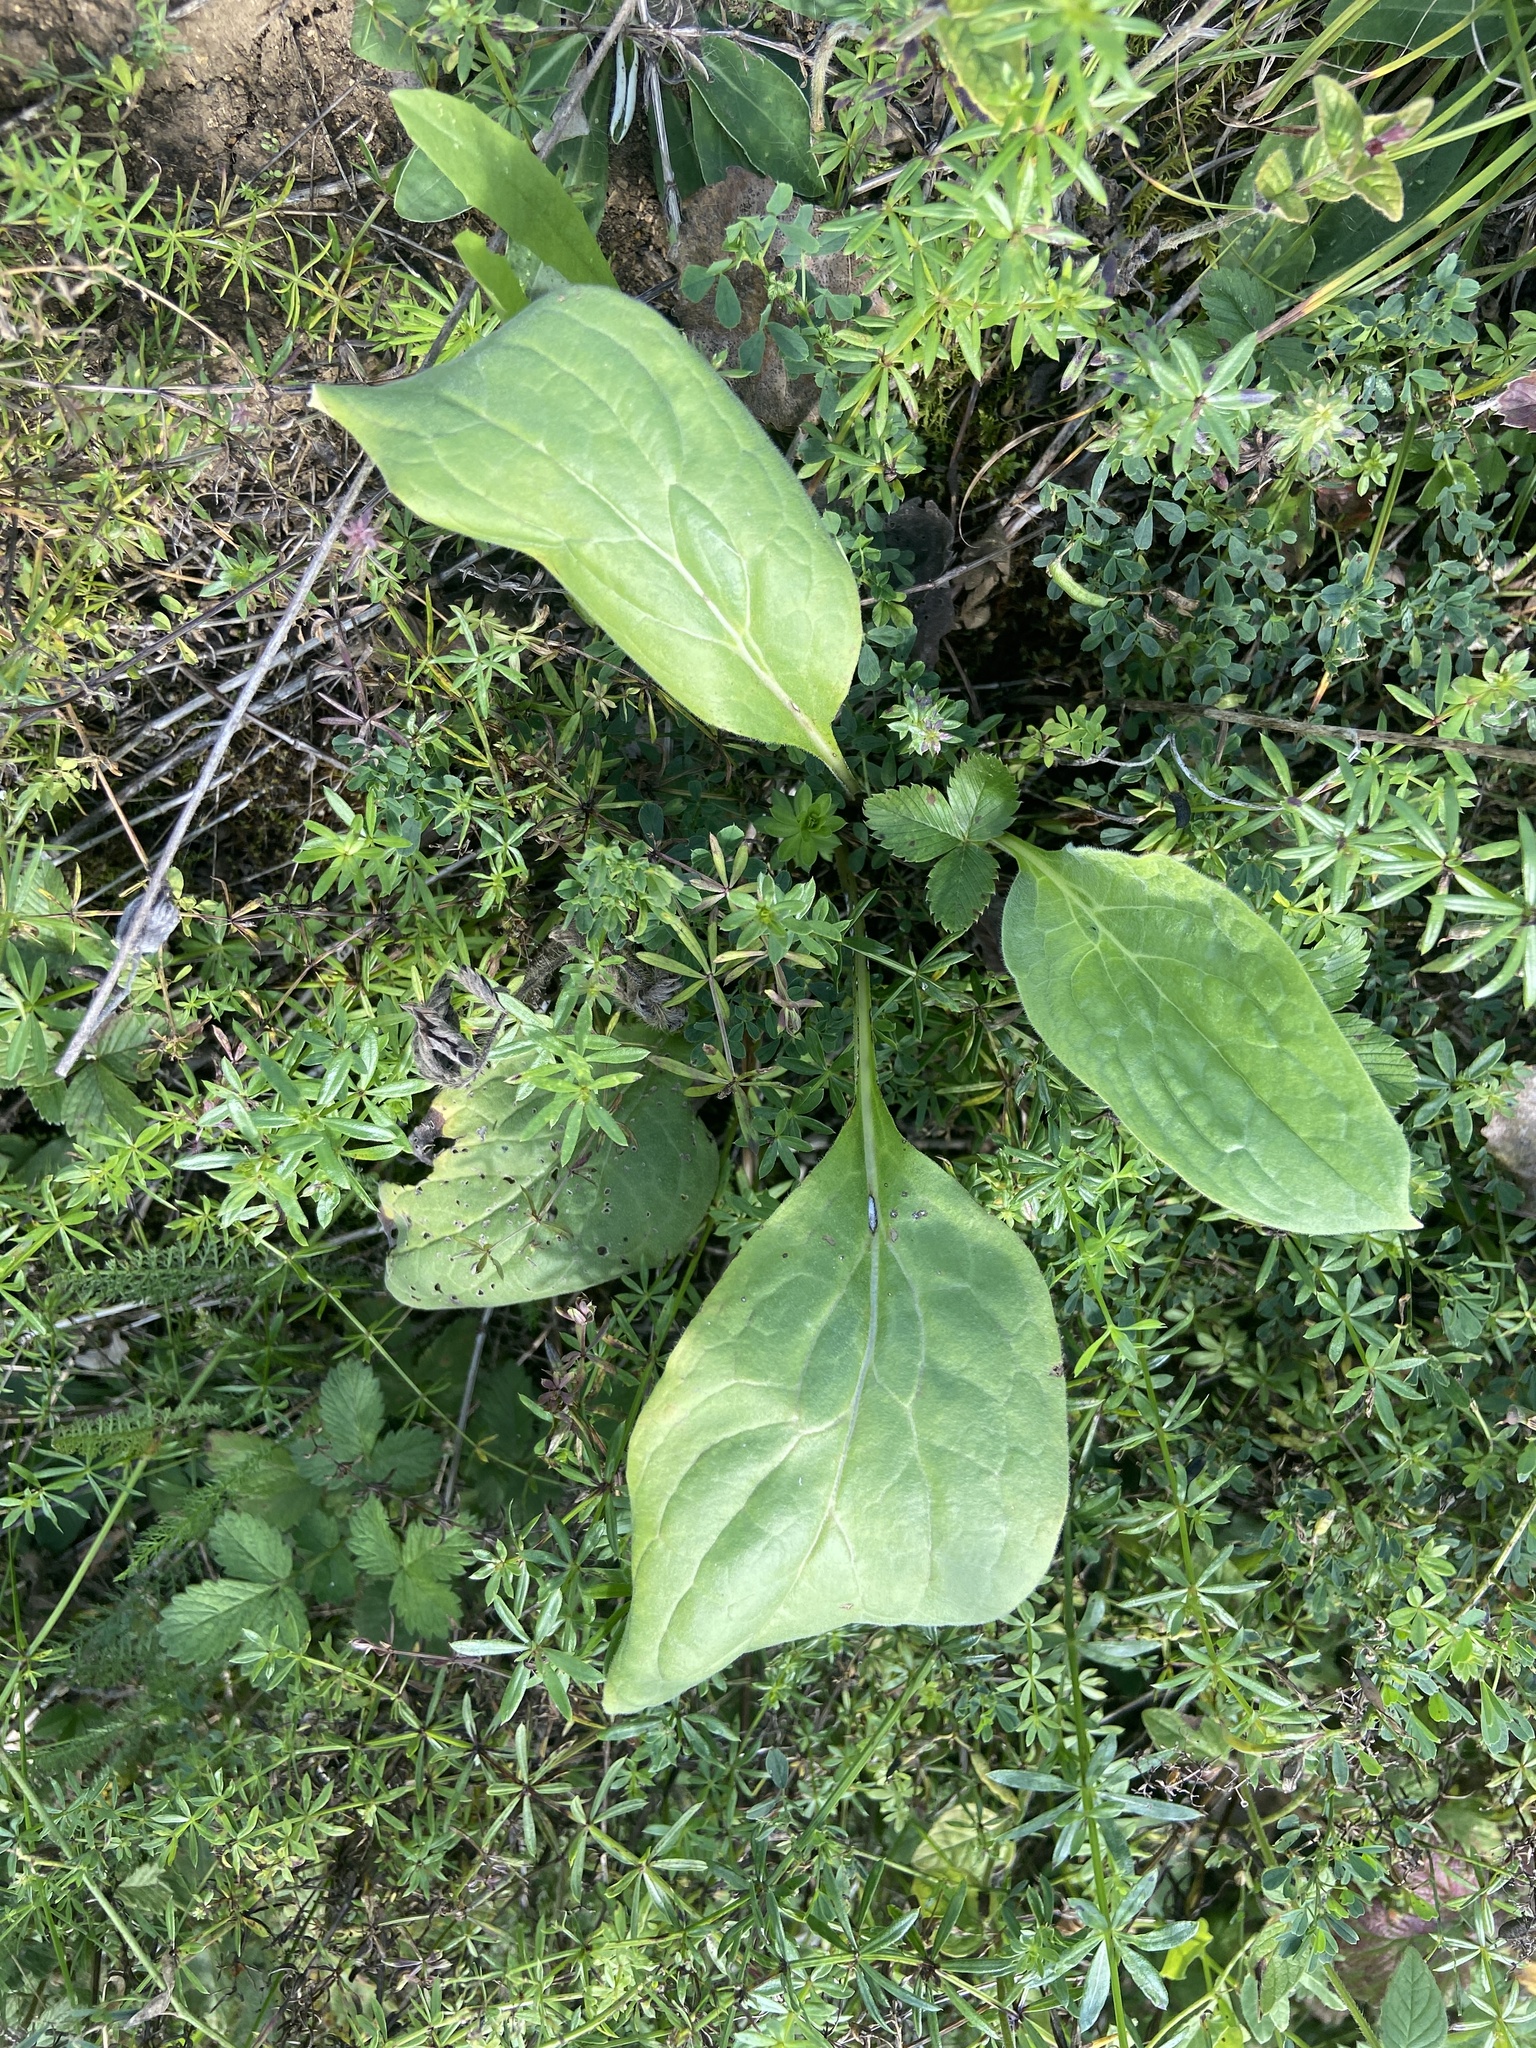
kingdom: Plantae
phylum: Tracheophyta
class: Magnoliopsida
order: Boraginales
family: Boraginaceae
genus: Cynoglossum
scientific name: Cynoglossum officinale
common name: Hound's-tongue
